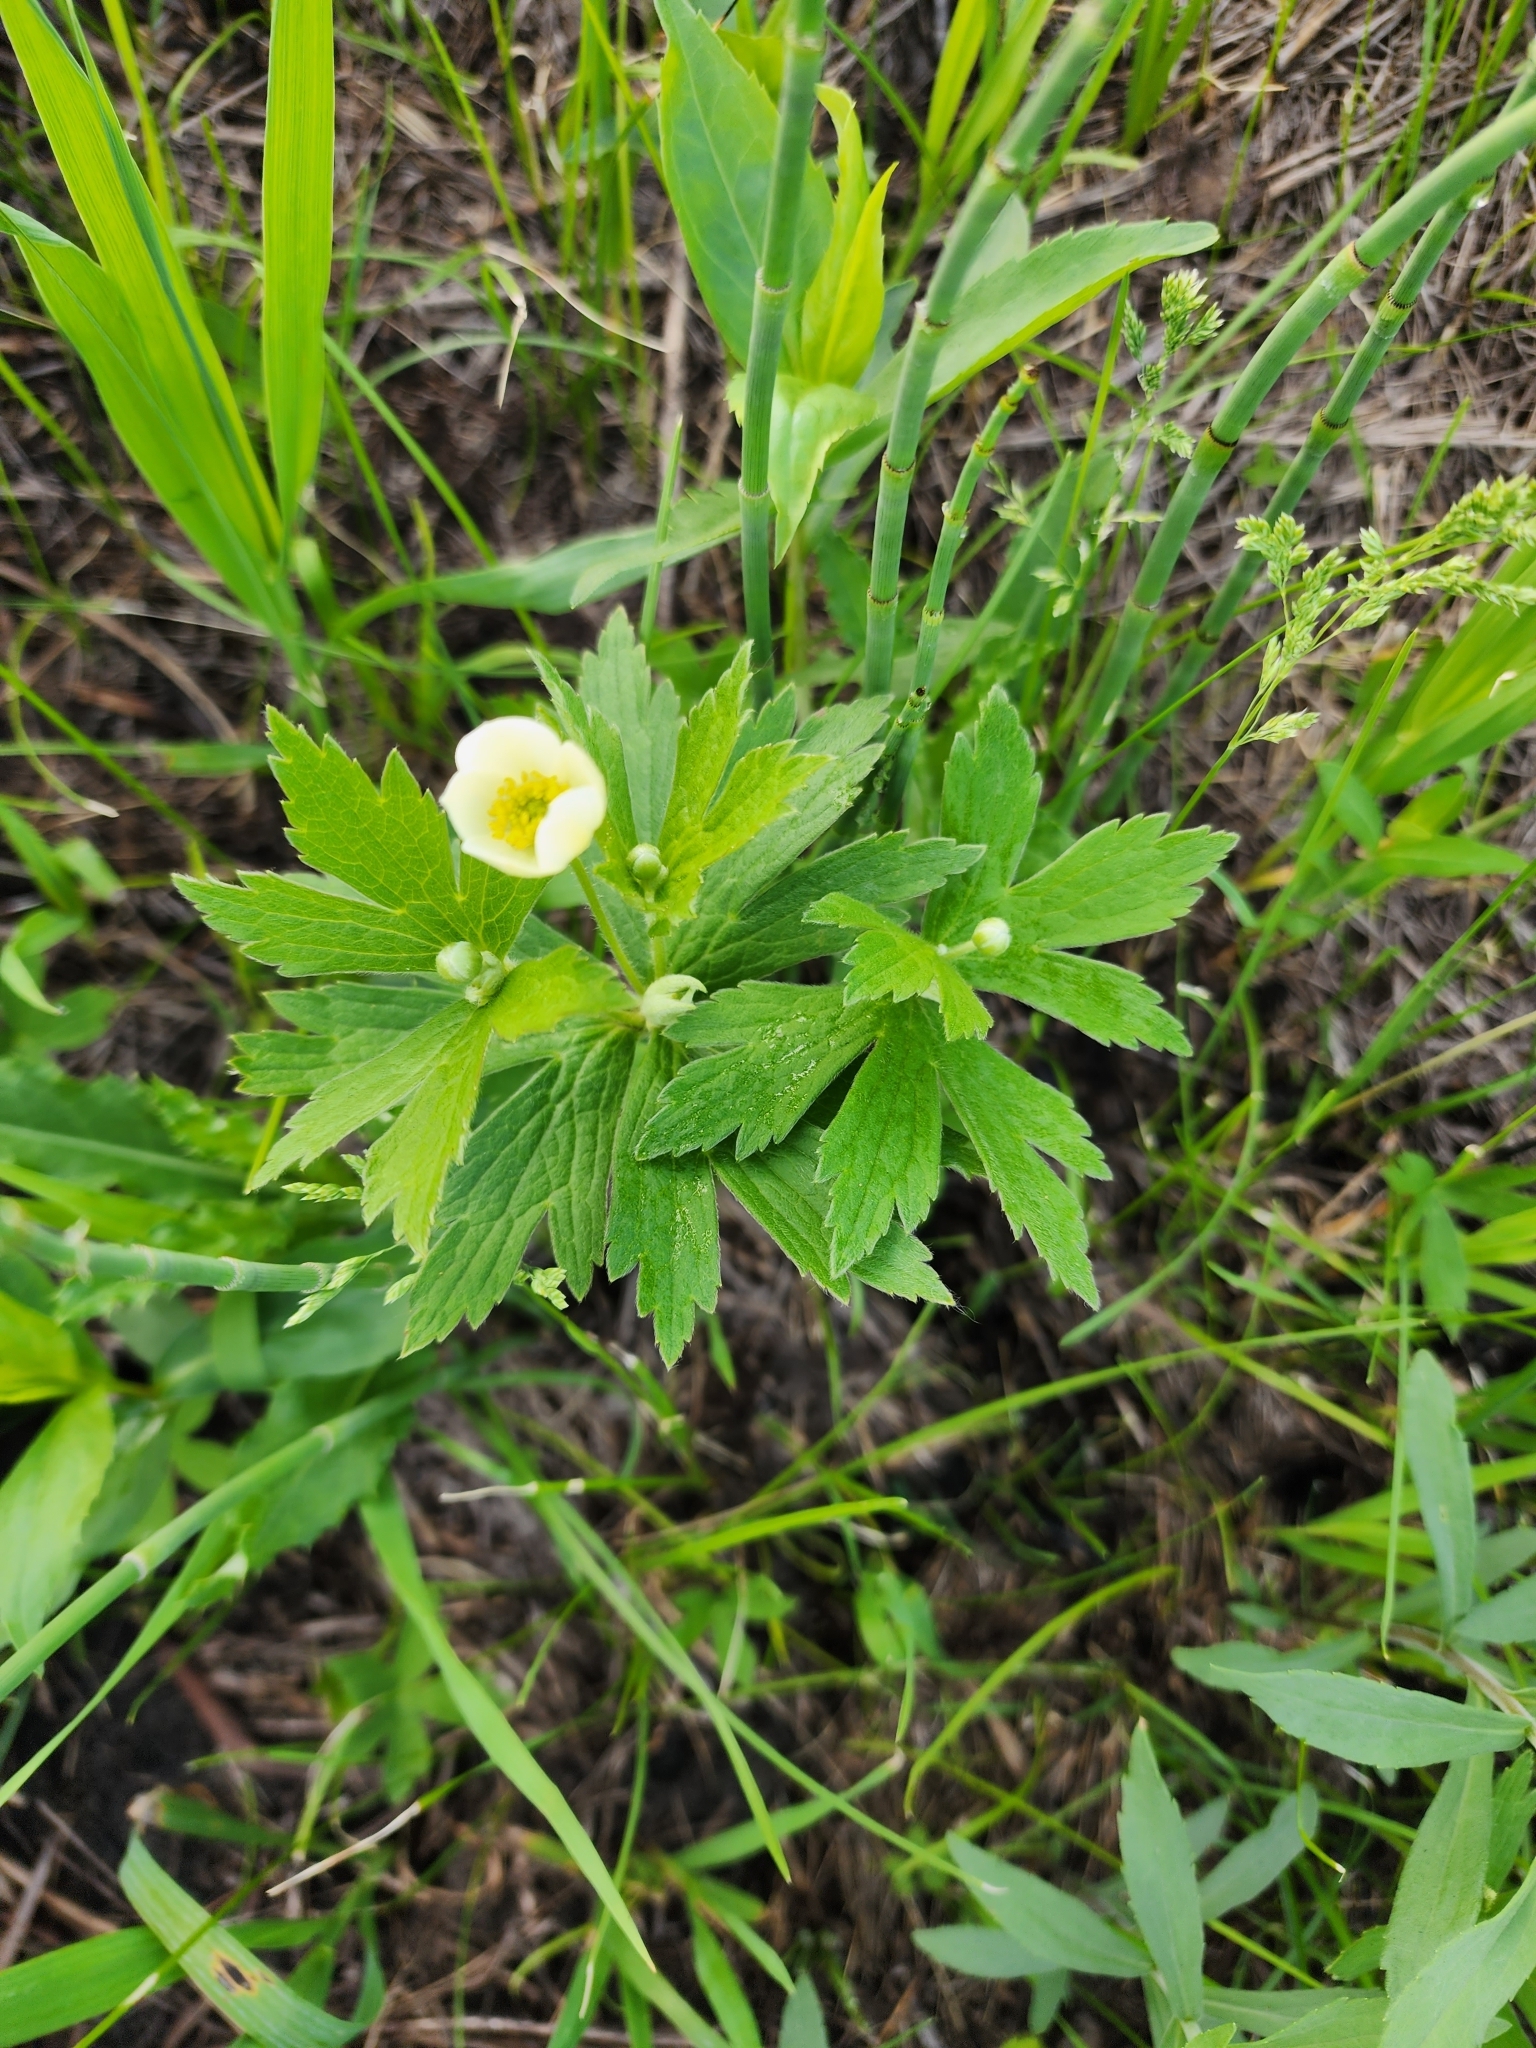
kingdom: Plantae
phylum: Tracheophyta
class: Magnoliopsida
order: Ranunculales
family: Ranunculaceae
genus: Anemonastrum
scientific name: Anemonastrum canadense
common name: Canada anemone
